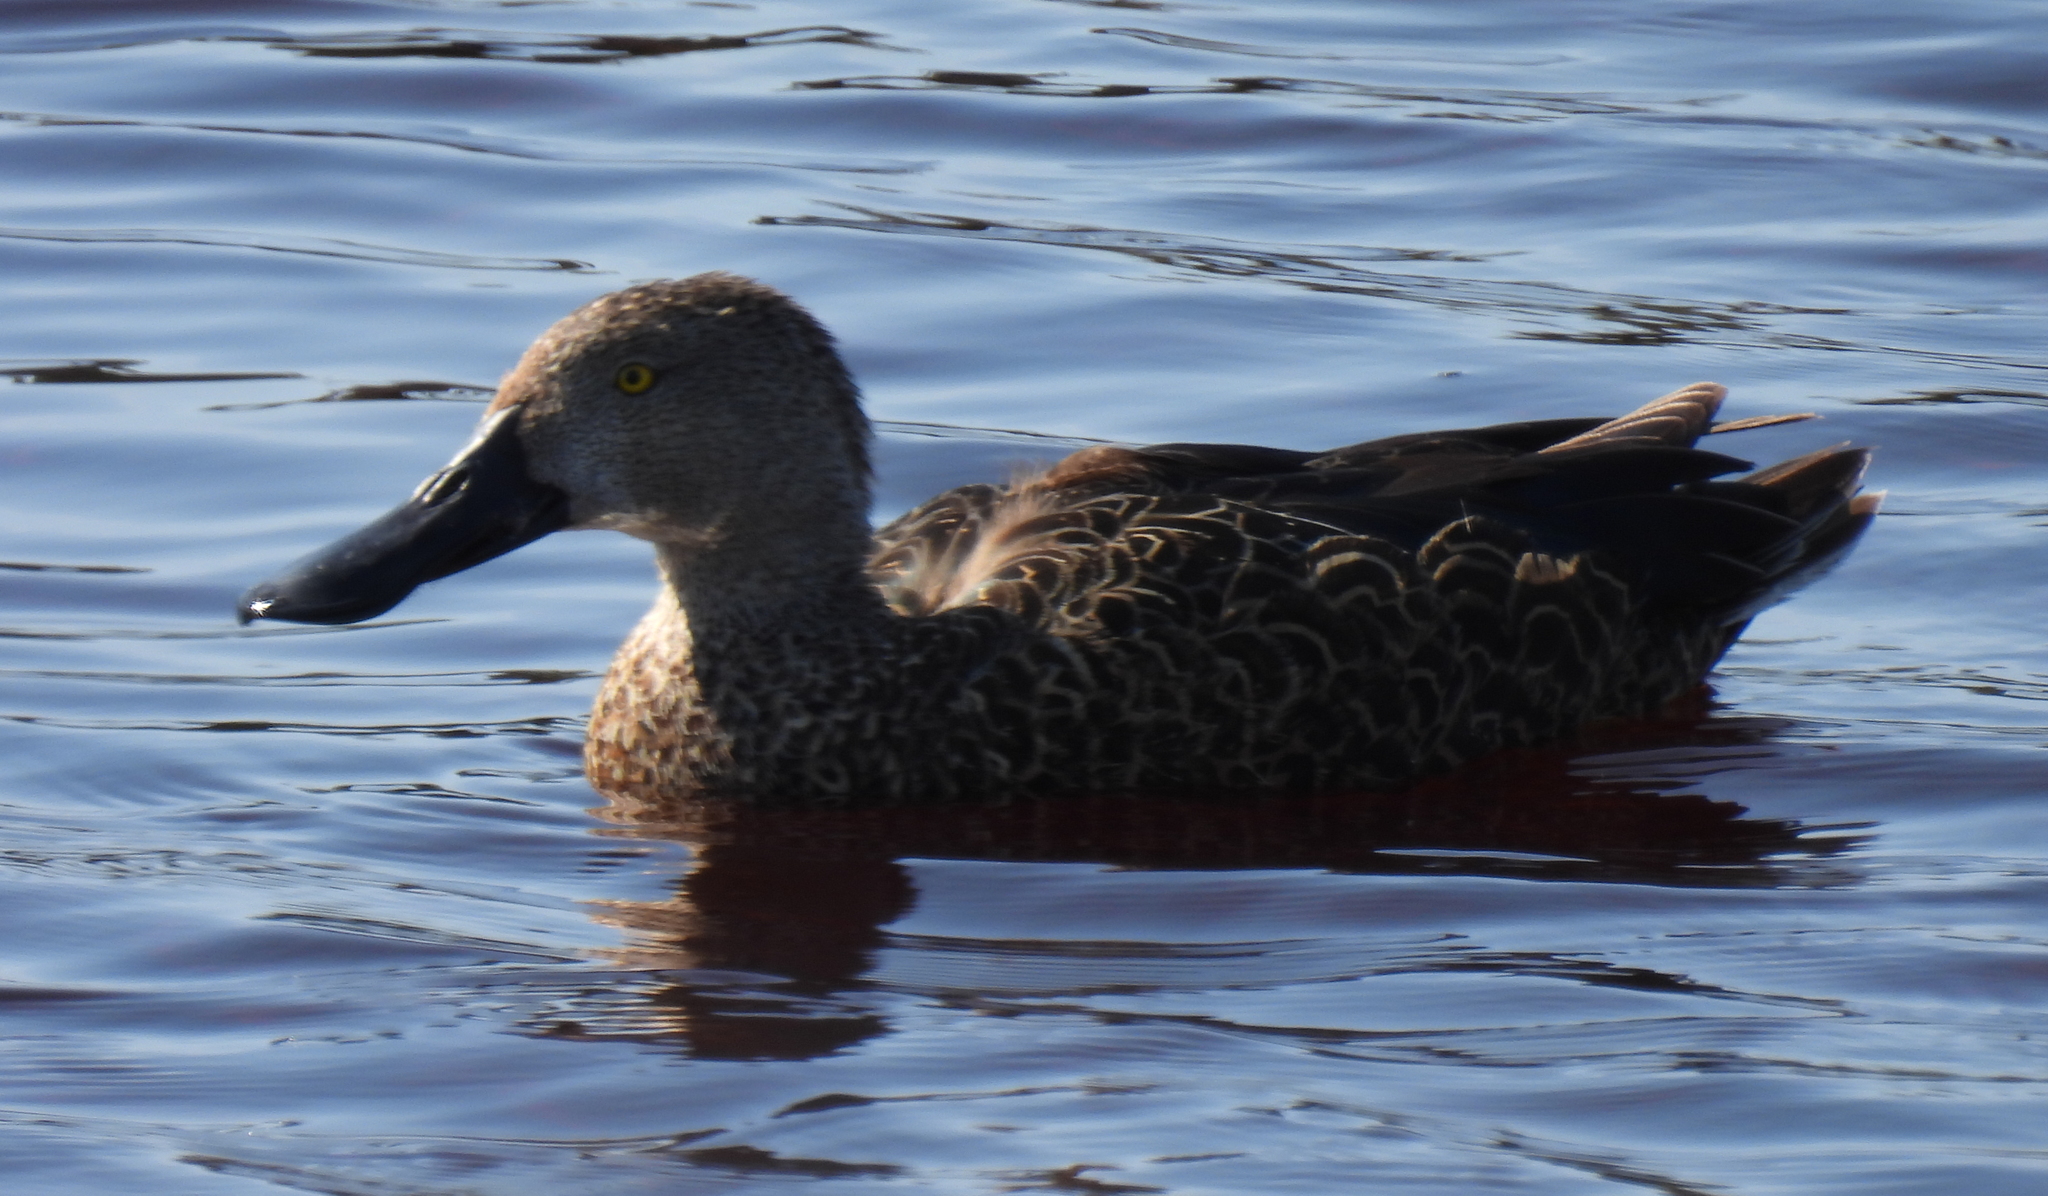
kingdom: Animalia
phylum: Chordata
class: Aves
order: Anseriformes
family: Anatidae
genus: Spatula
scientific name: Spatula smithii
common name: Cape shoveler
